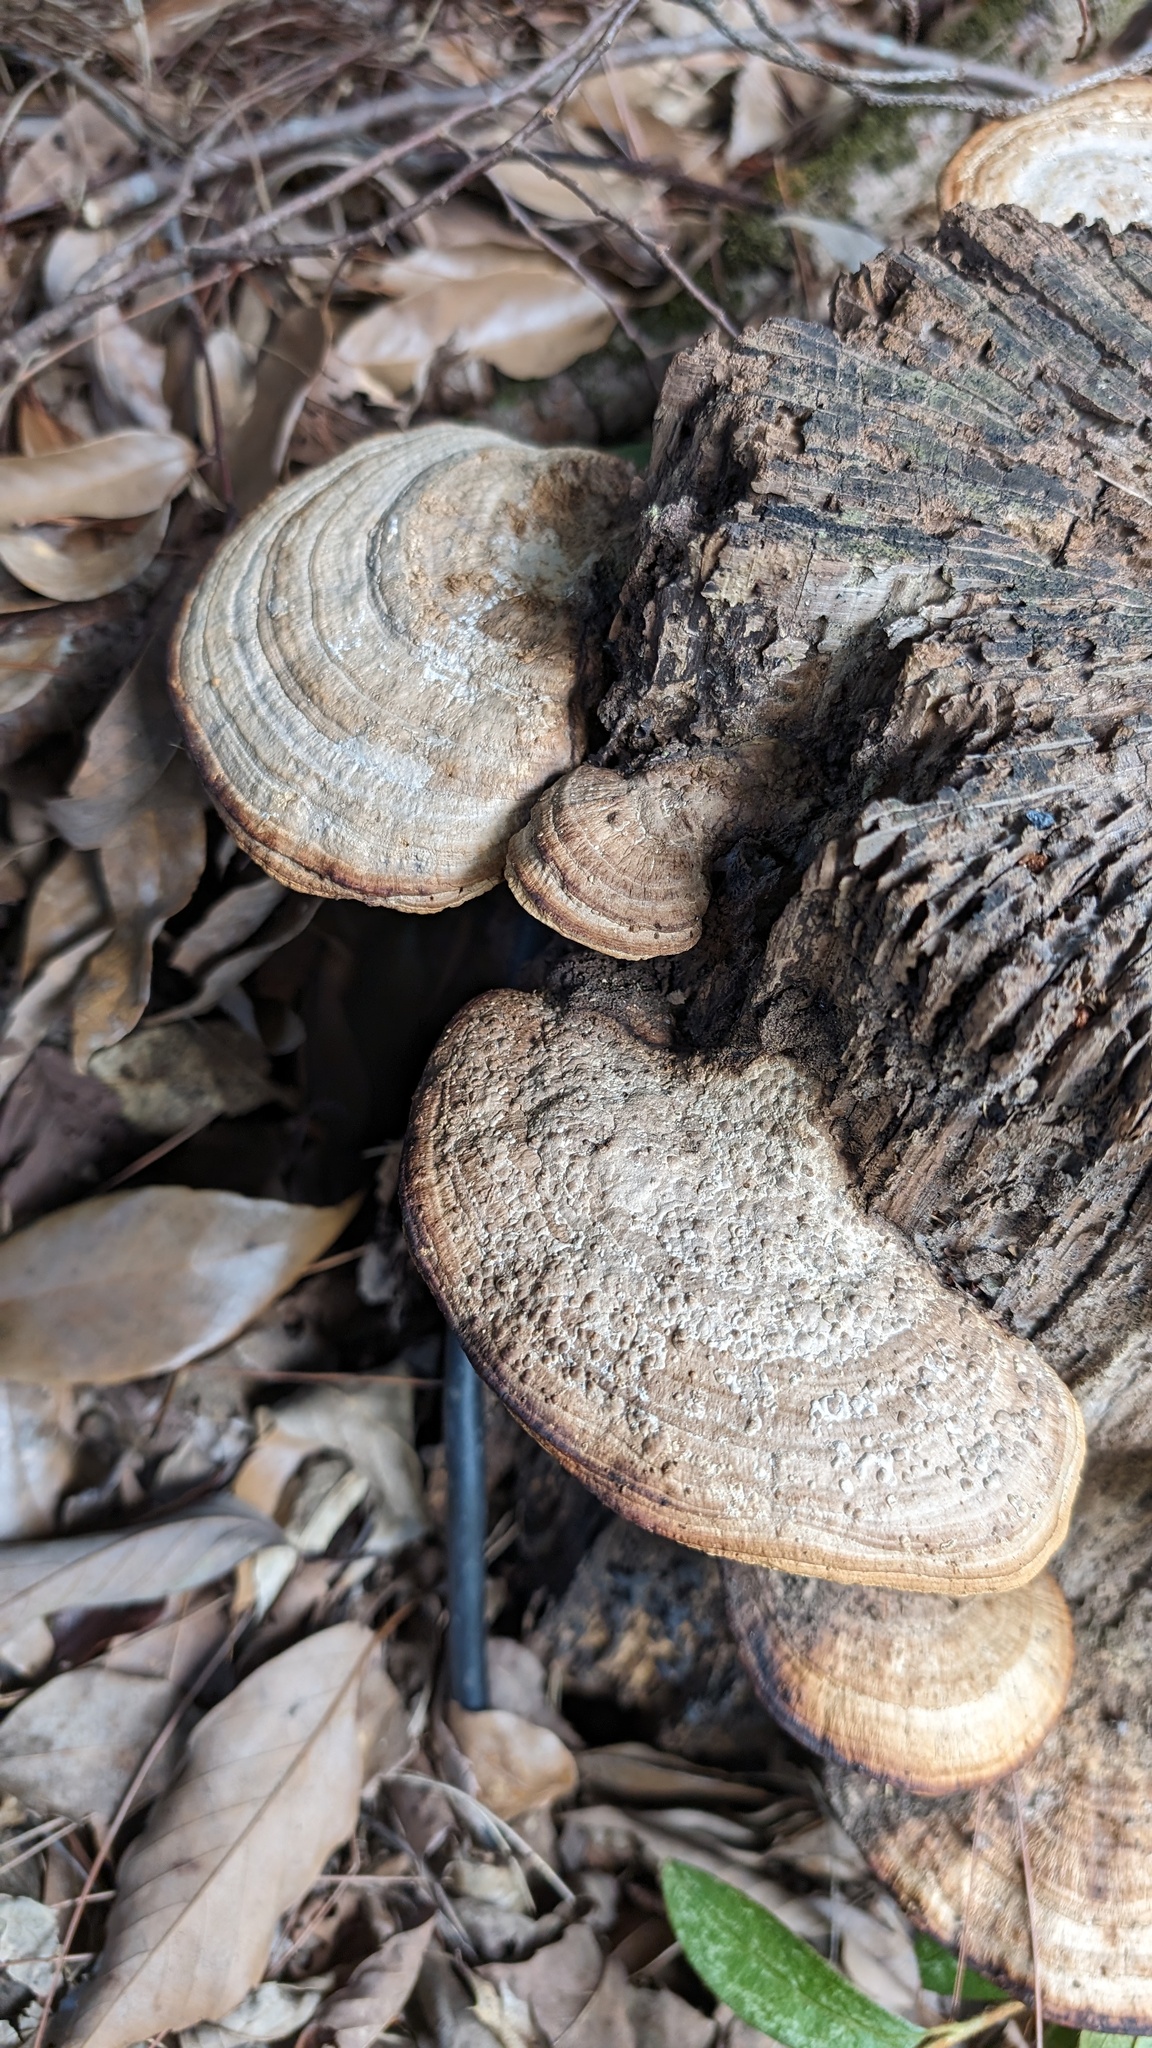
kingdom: Fungi
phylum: Basidiomycota
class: Agaricomycetes
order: Polyporales
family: Fomitopsidaceae
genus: Fomitopsis
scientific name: Fomitopsis
